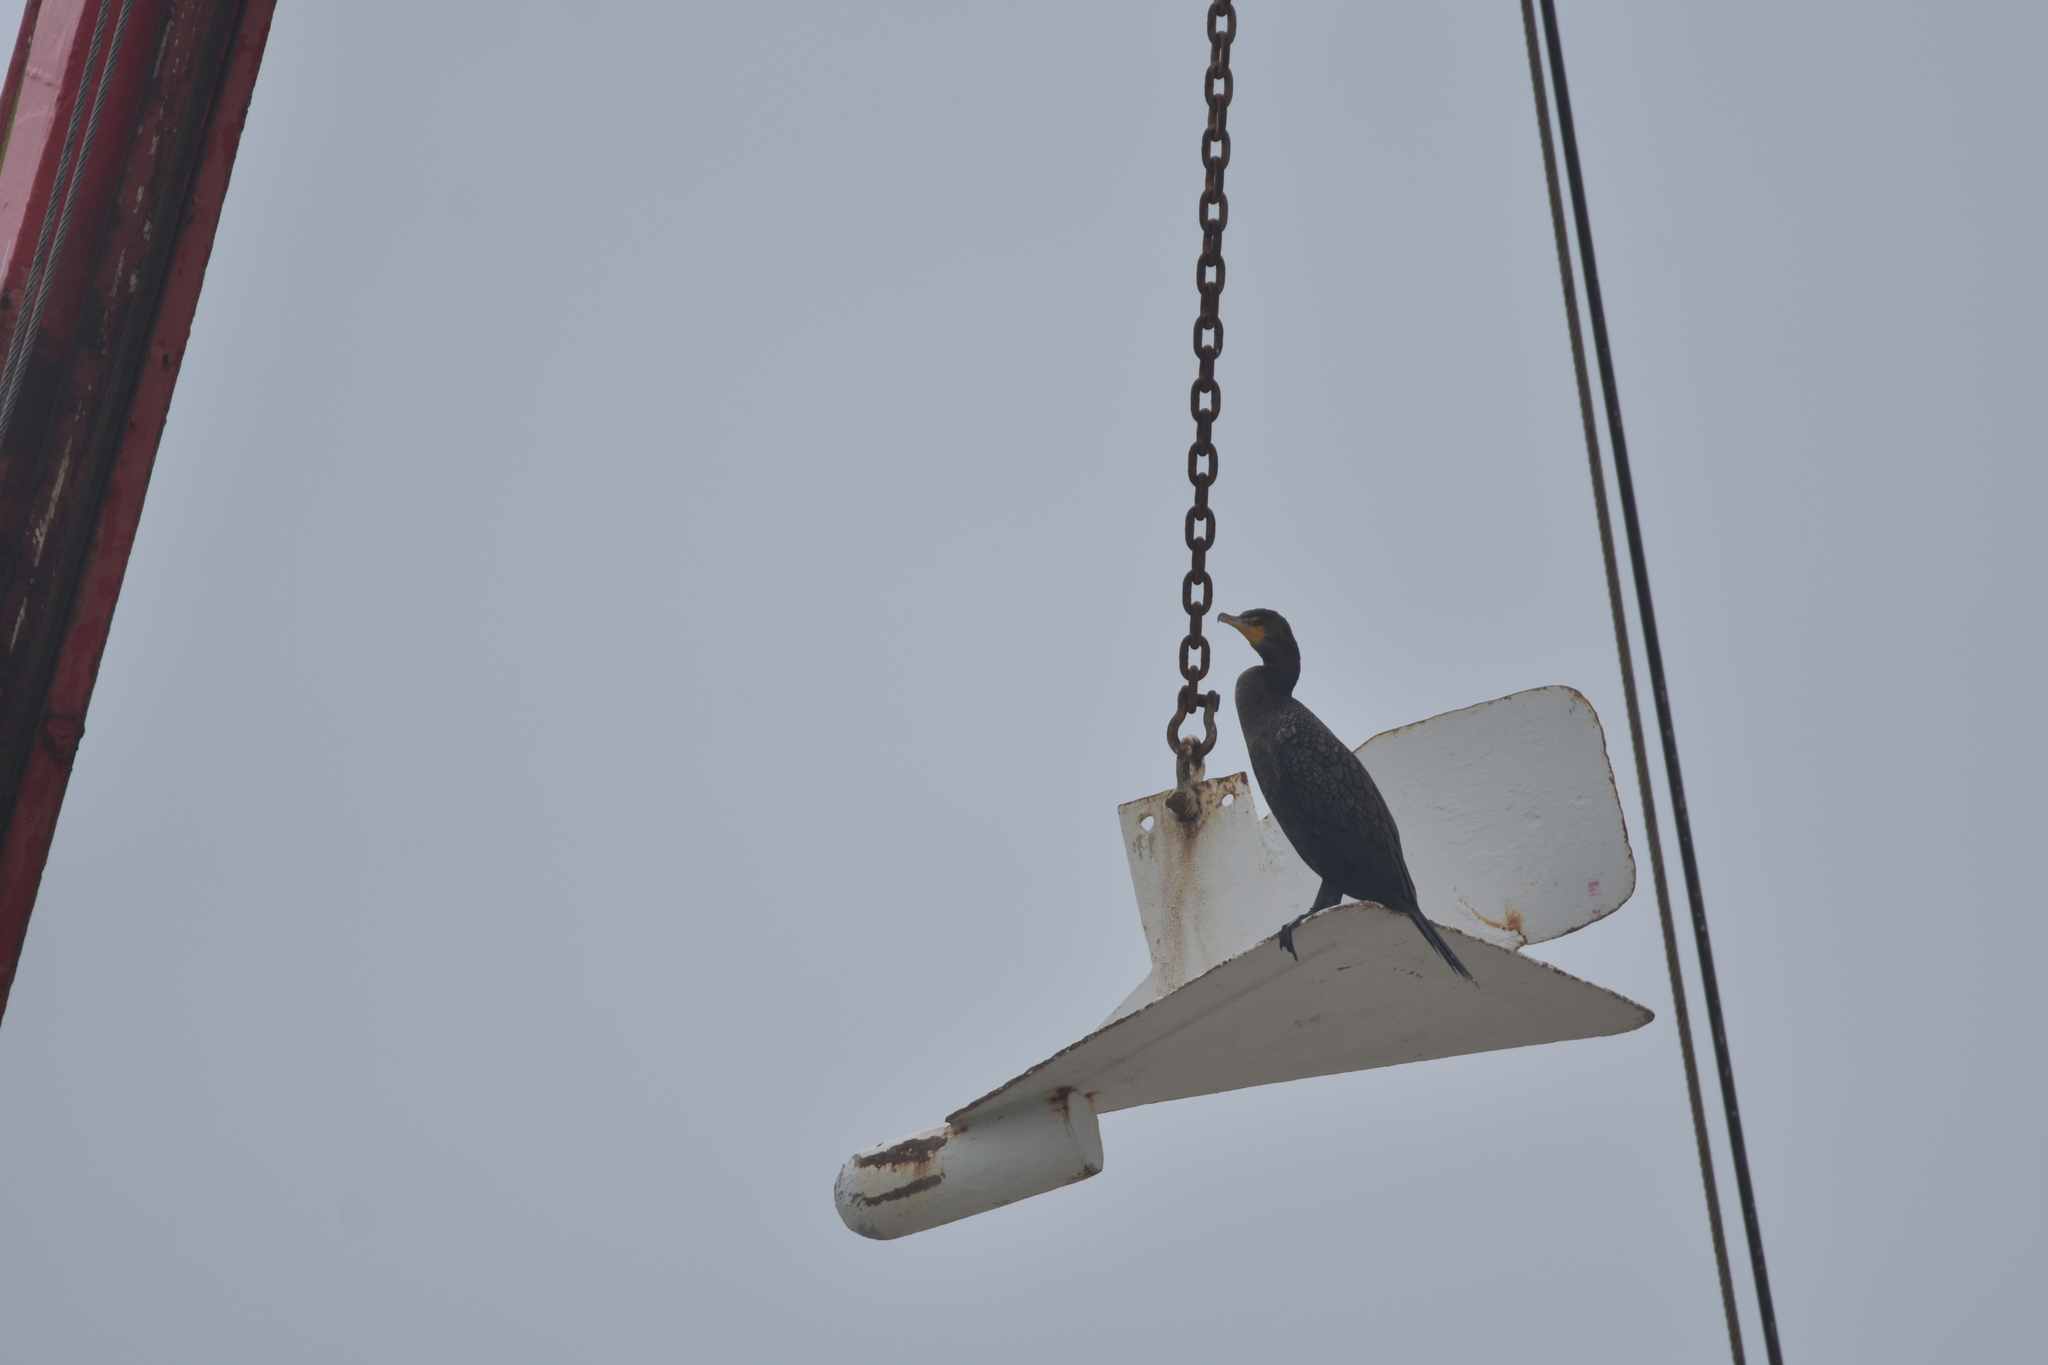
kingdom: Animalia
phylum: Chordata
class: Aves
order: Suliformes
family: Phalacrocoracidae
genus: Phalacrocorax
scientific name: Phalacrocorax auritus
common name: Double-crested cormorant
